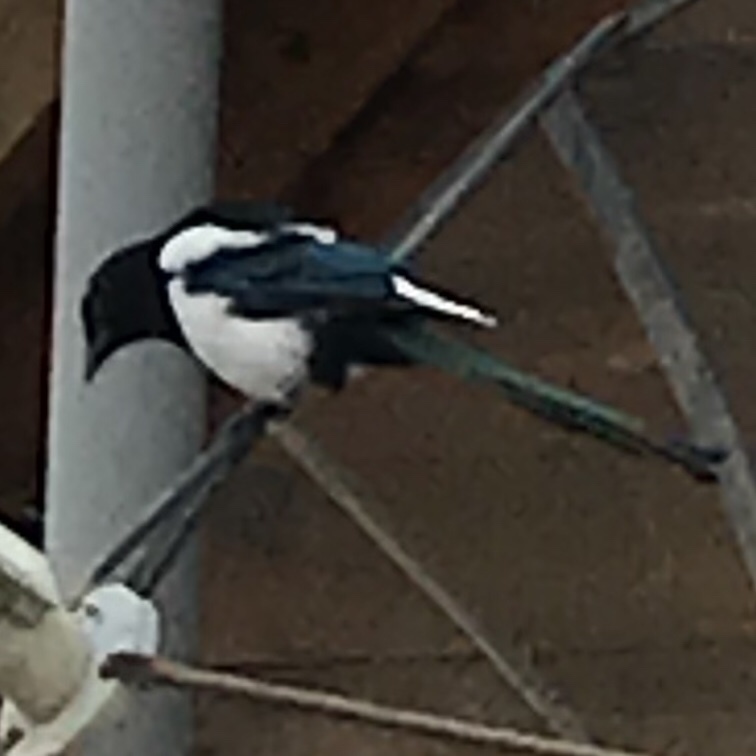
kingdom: Animalia
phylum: Chordata
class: Aves
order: Passeriformes
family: Corvidae
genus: Pica
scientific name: Pica pica
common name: Eurasian magpie
